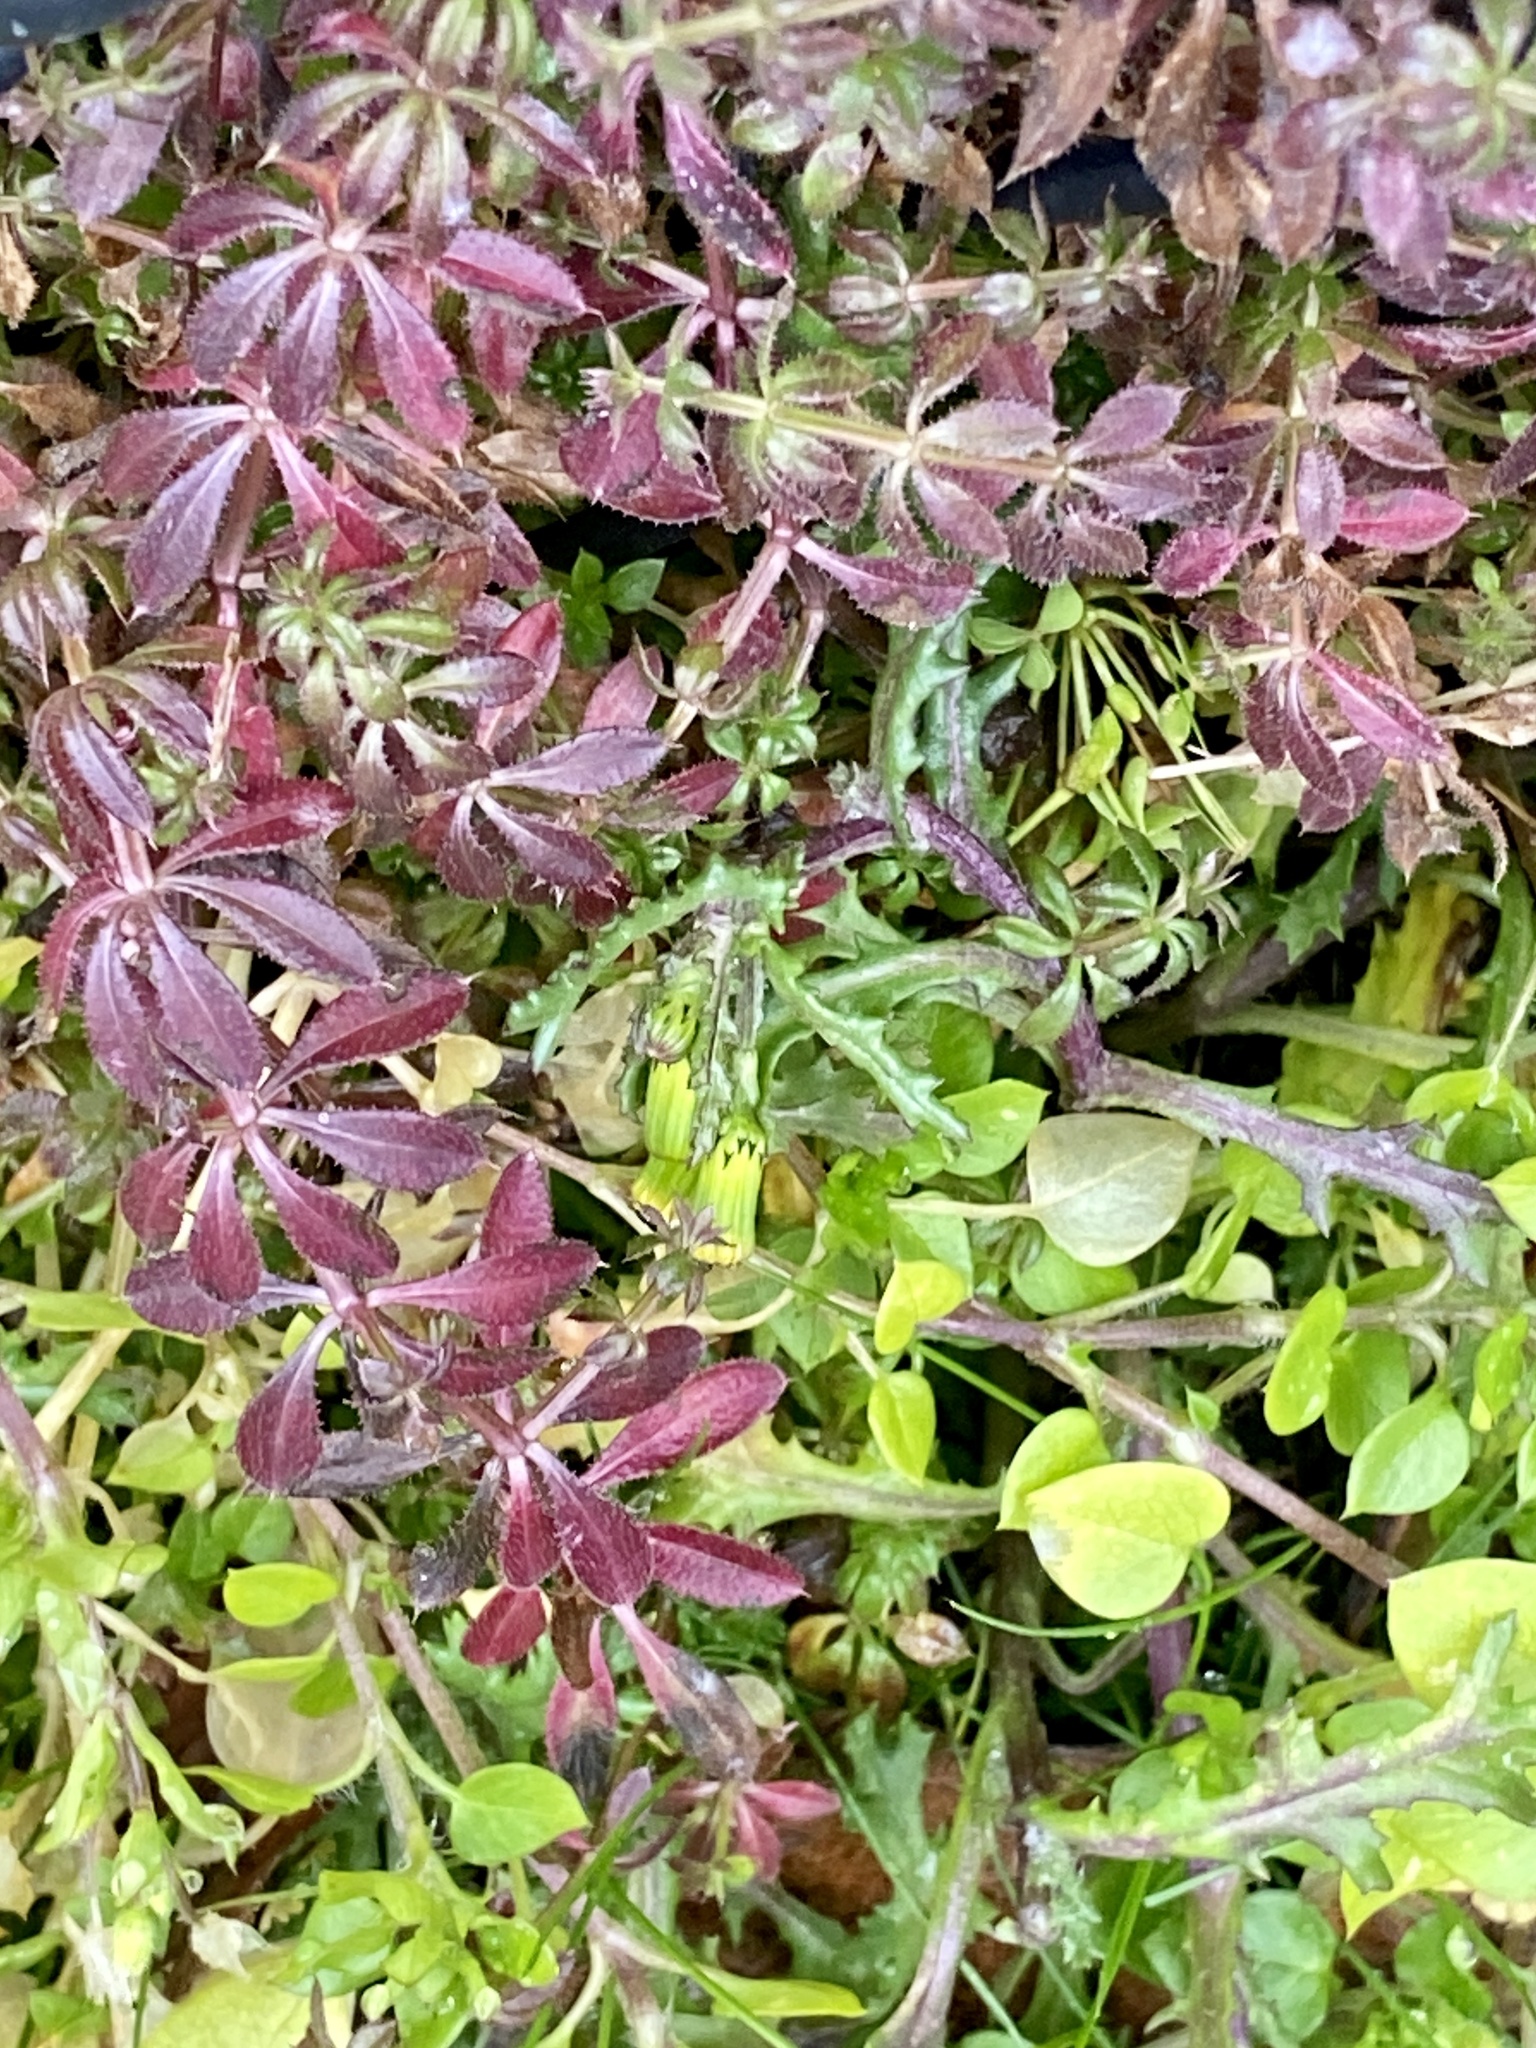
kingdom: Plantae
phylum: Tracheophyta
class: Magnoliopsida
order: Gentianales
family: Rubiaceae
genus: Galium
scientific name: Galium aparine
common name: Cleavers
